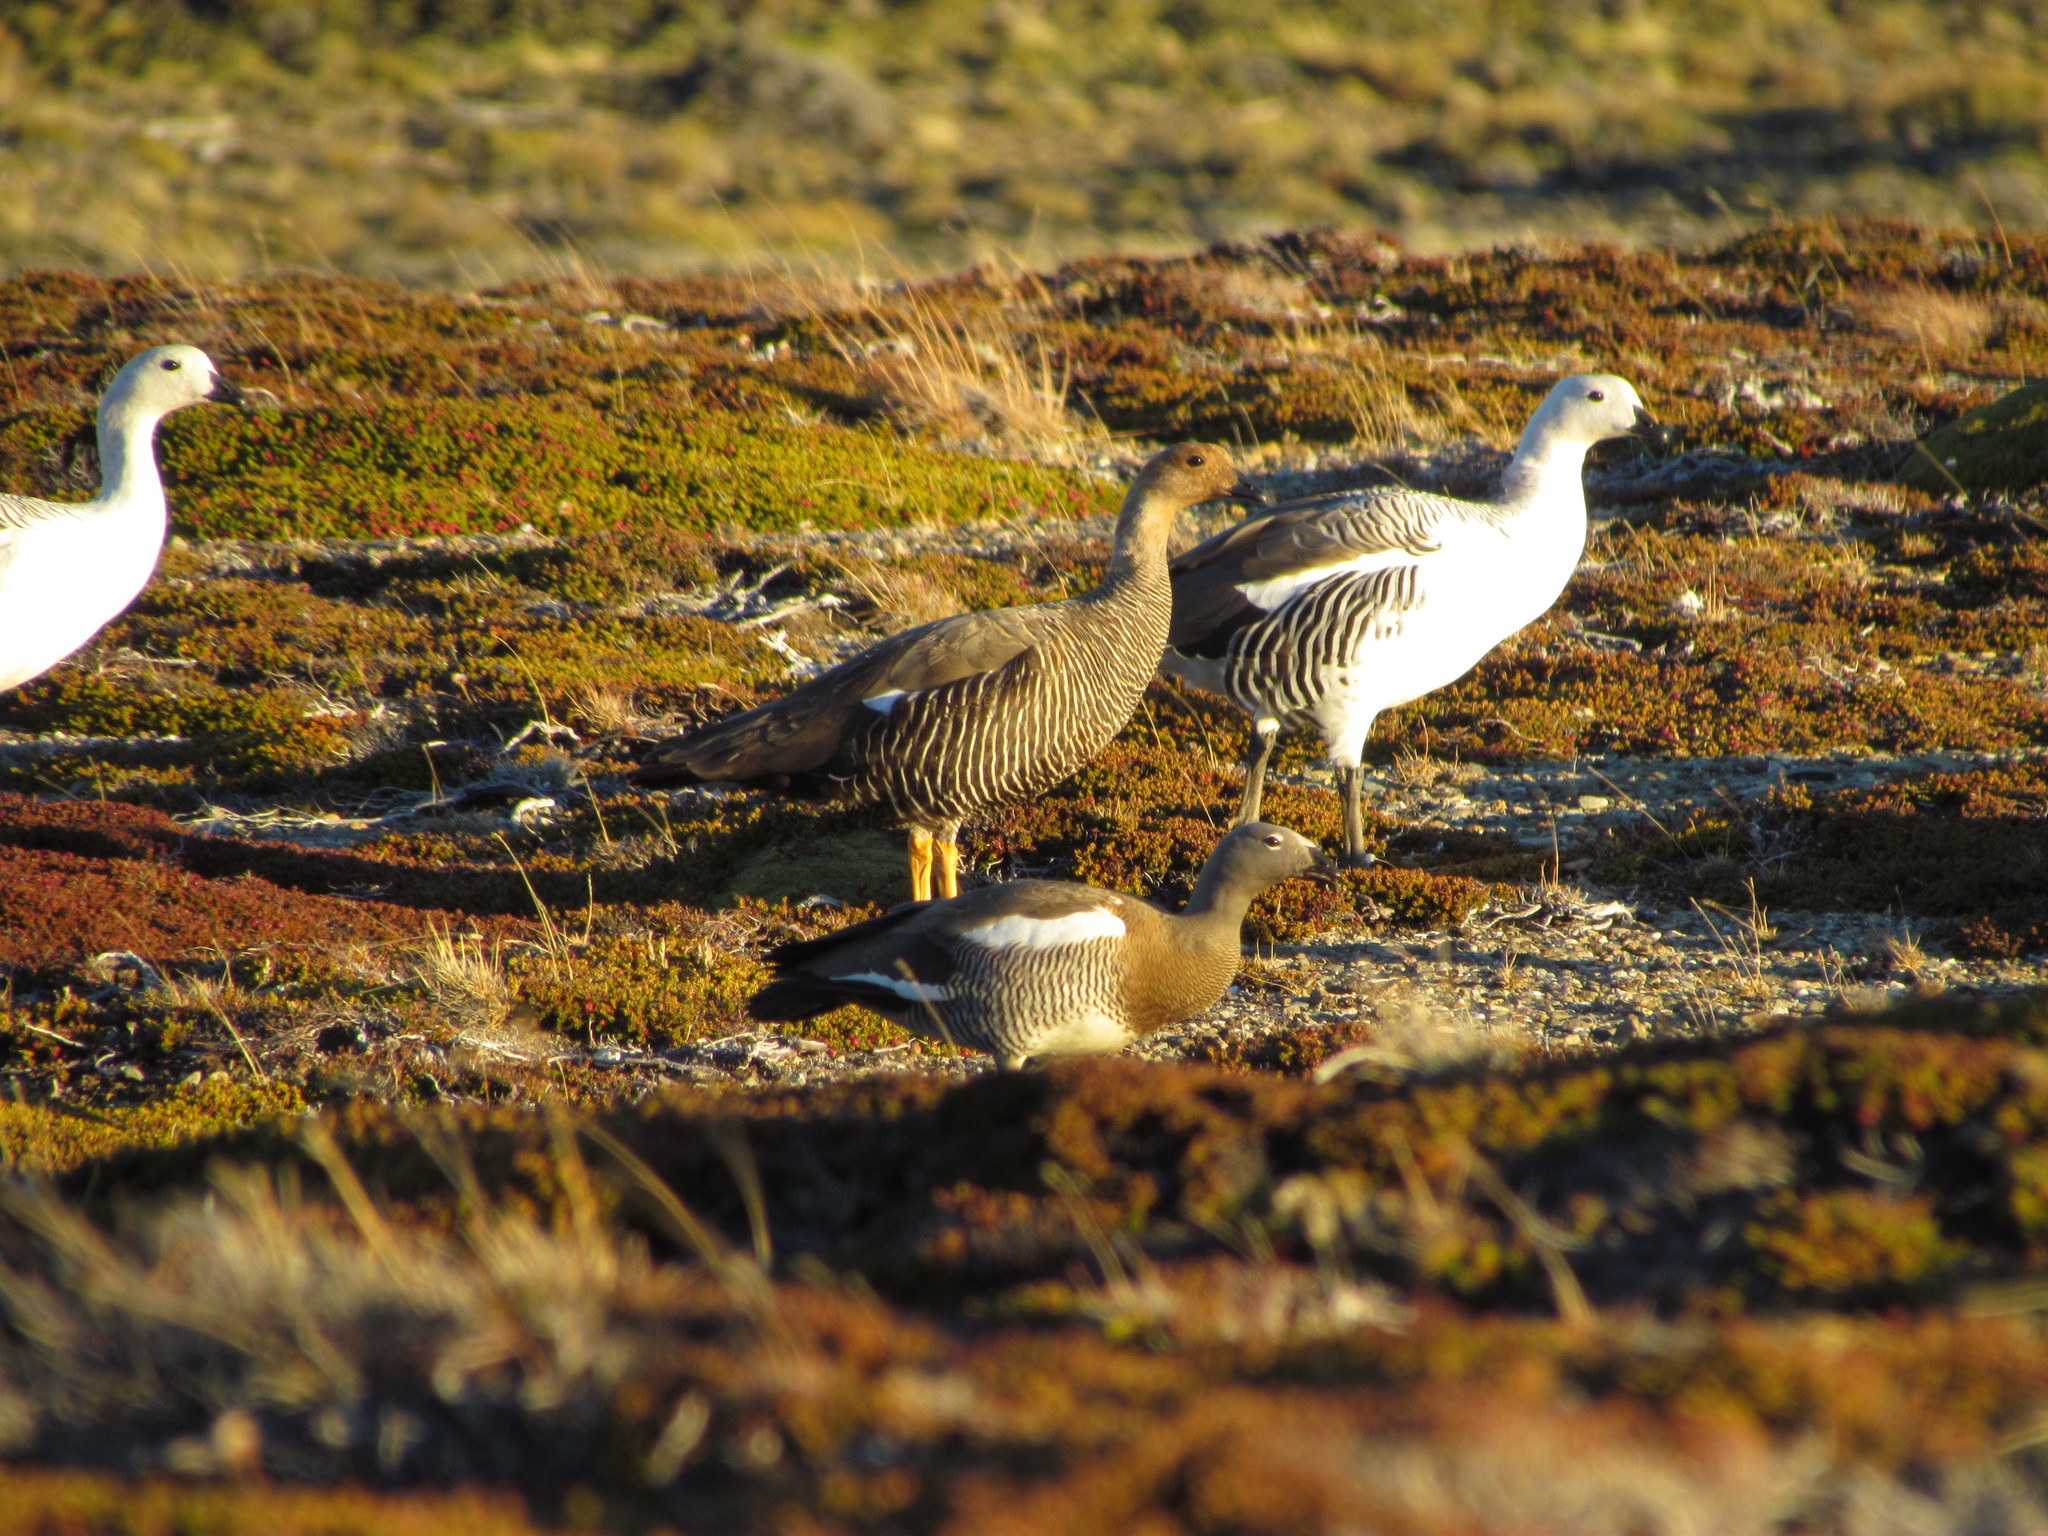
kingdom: Animalia
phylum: Chordata
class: Aves
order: Anseriformes
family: Anatidae
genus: Chloephaga
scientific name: Chloephaga picta
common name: Upland goose
